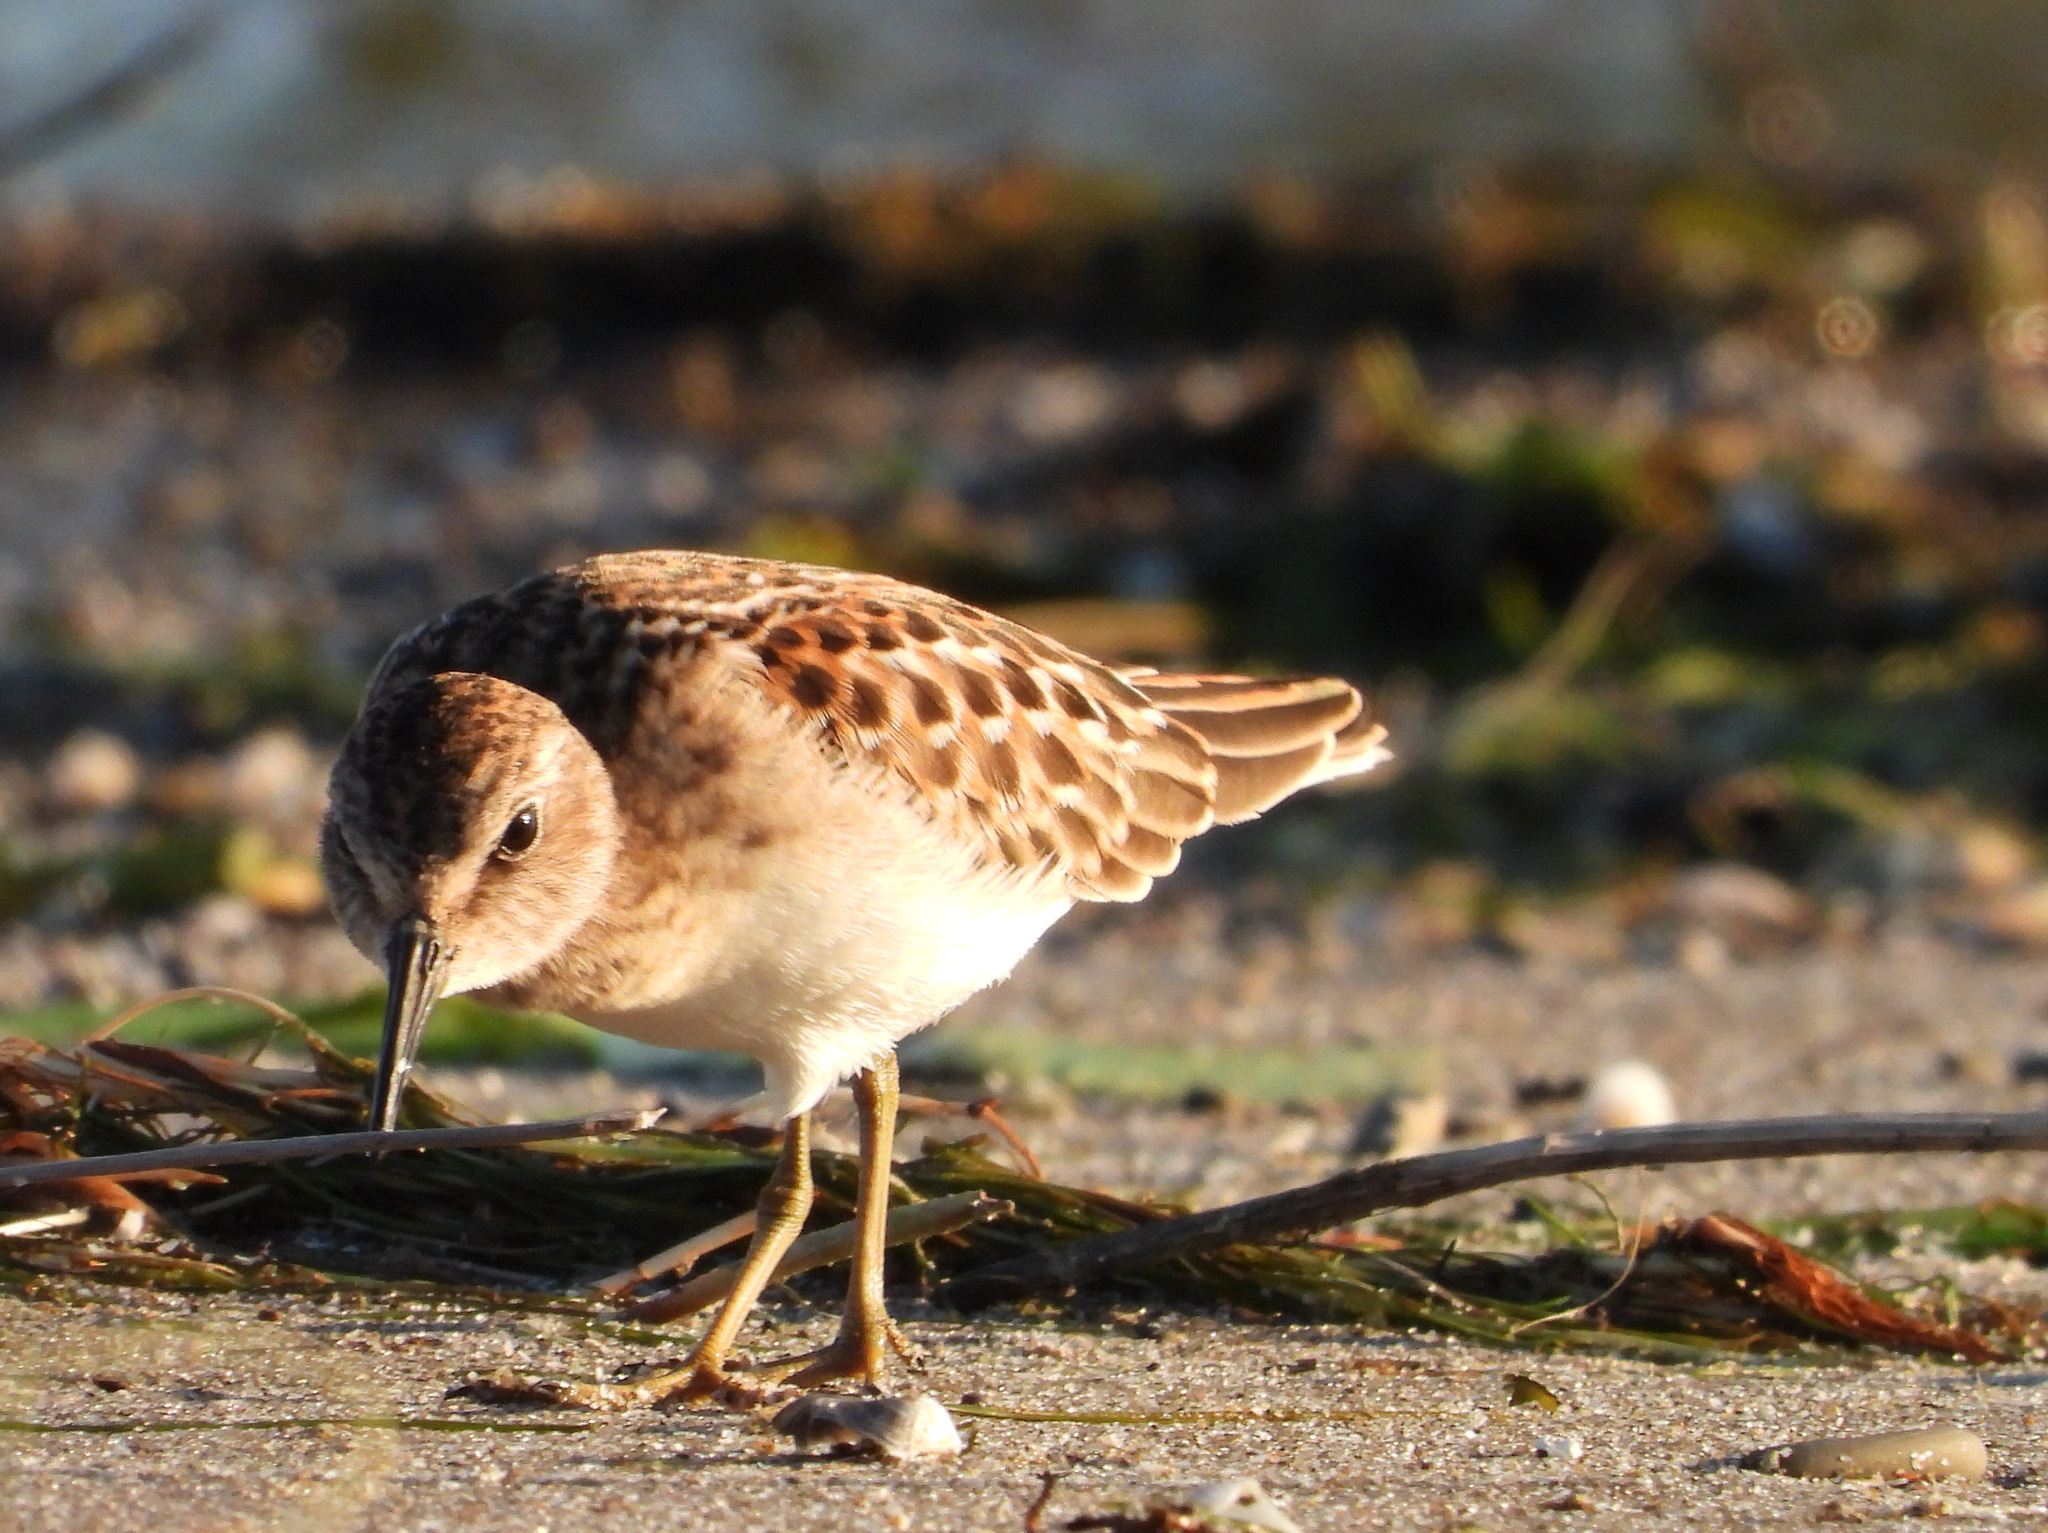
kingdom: Animalia
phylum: Chordata
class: Aves
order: Charadriiformes
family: Scolopacidae
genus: Calidris
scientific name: Calidris minutilla
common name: Least sandpiper
